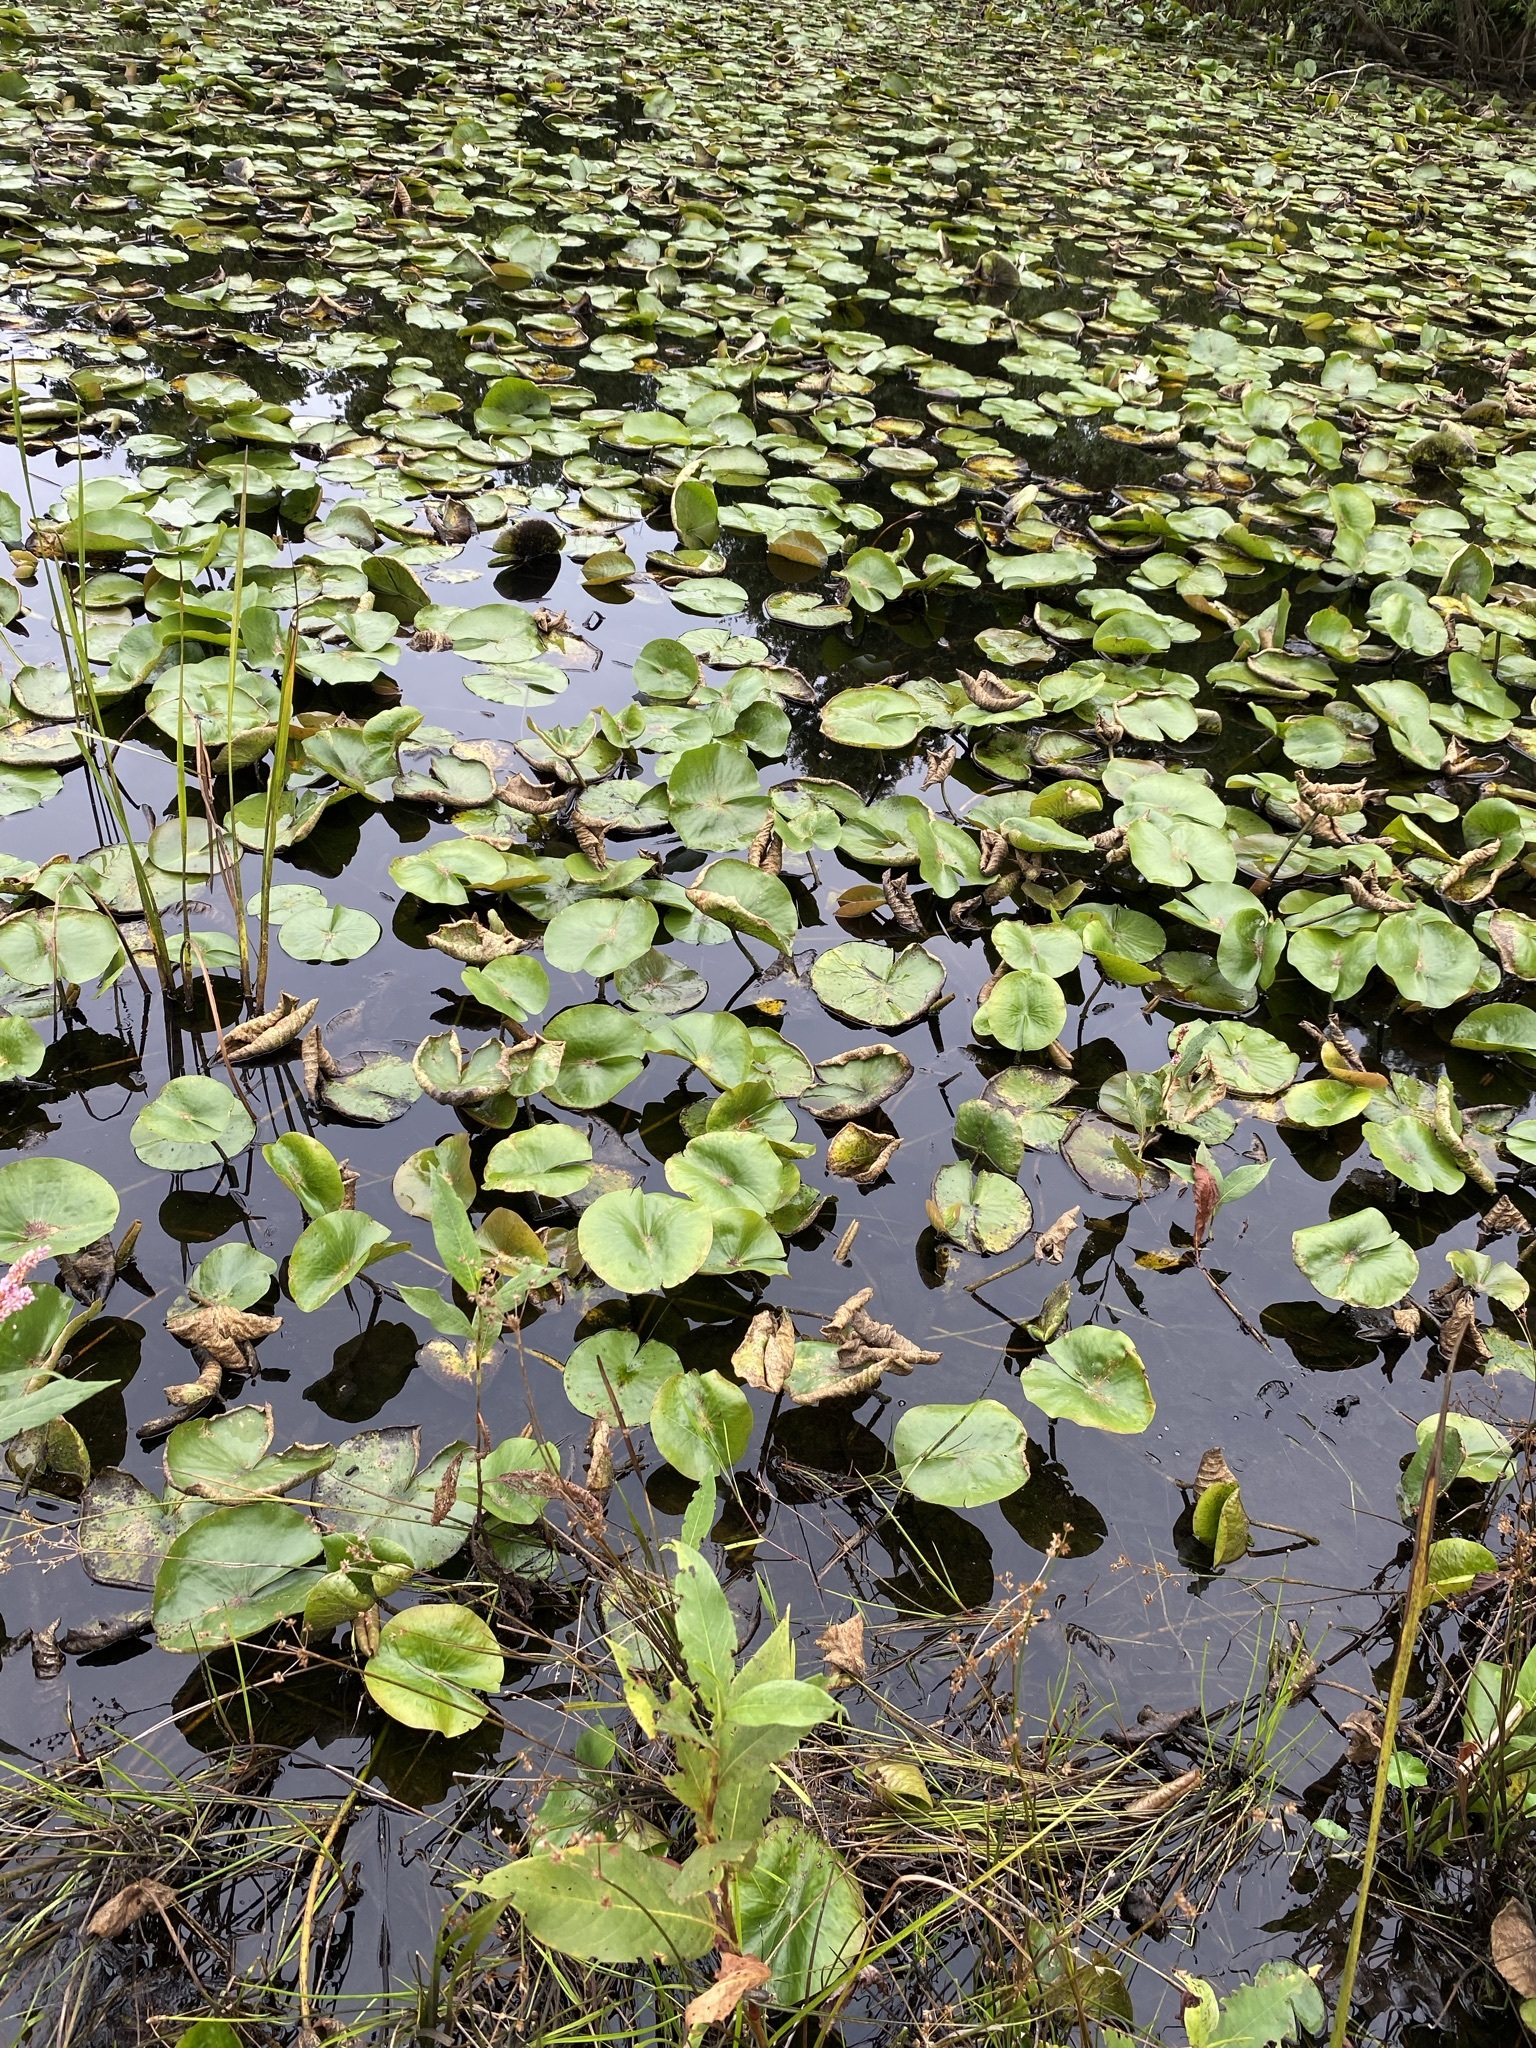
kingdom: Plantae
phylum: Tracheophyta
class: Magnoliopsida
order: Nymphaeales
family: Nymphaeaceae
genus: Nymphaea
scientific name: Nymphaea odorata
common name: Fragrant water-lily
